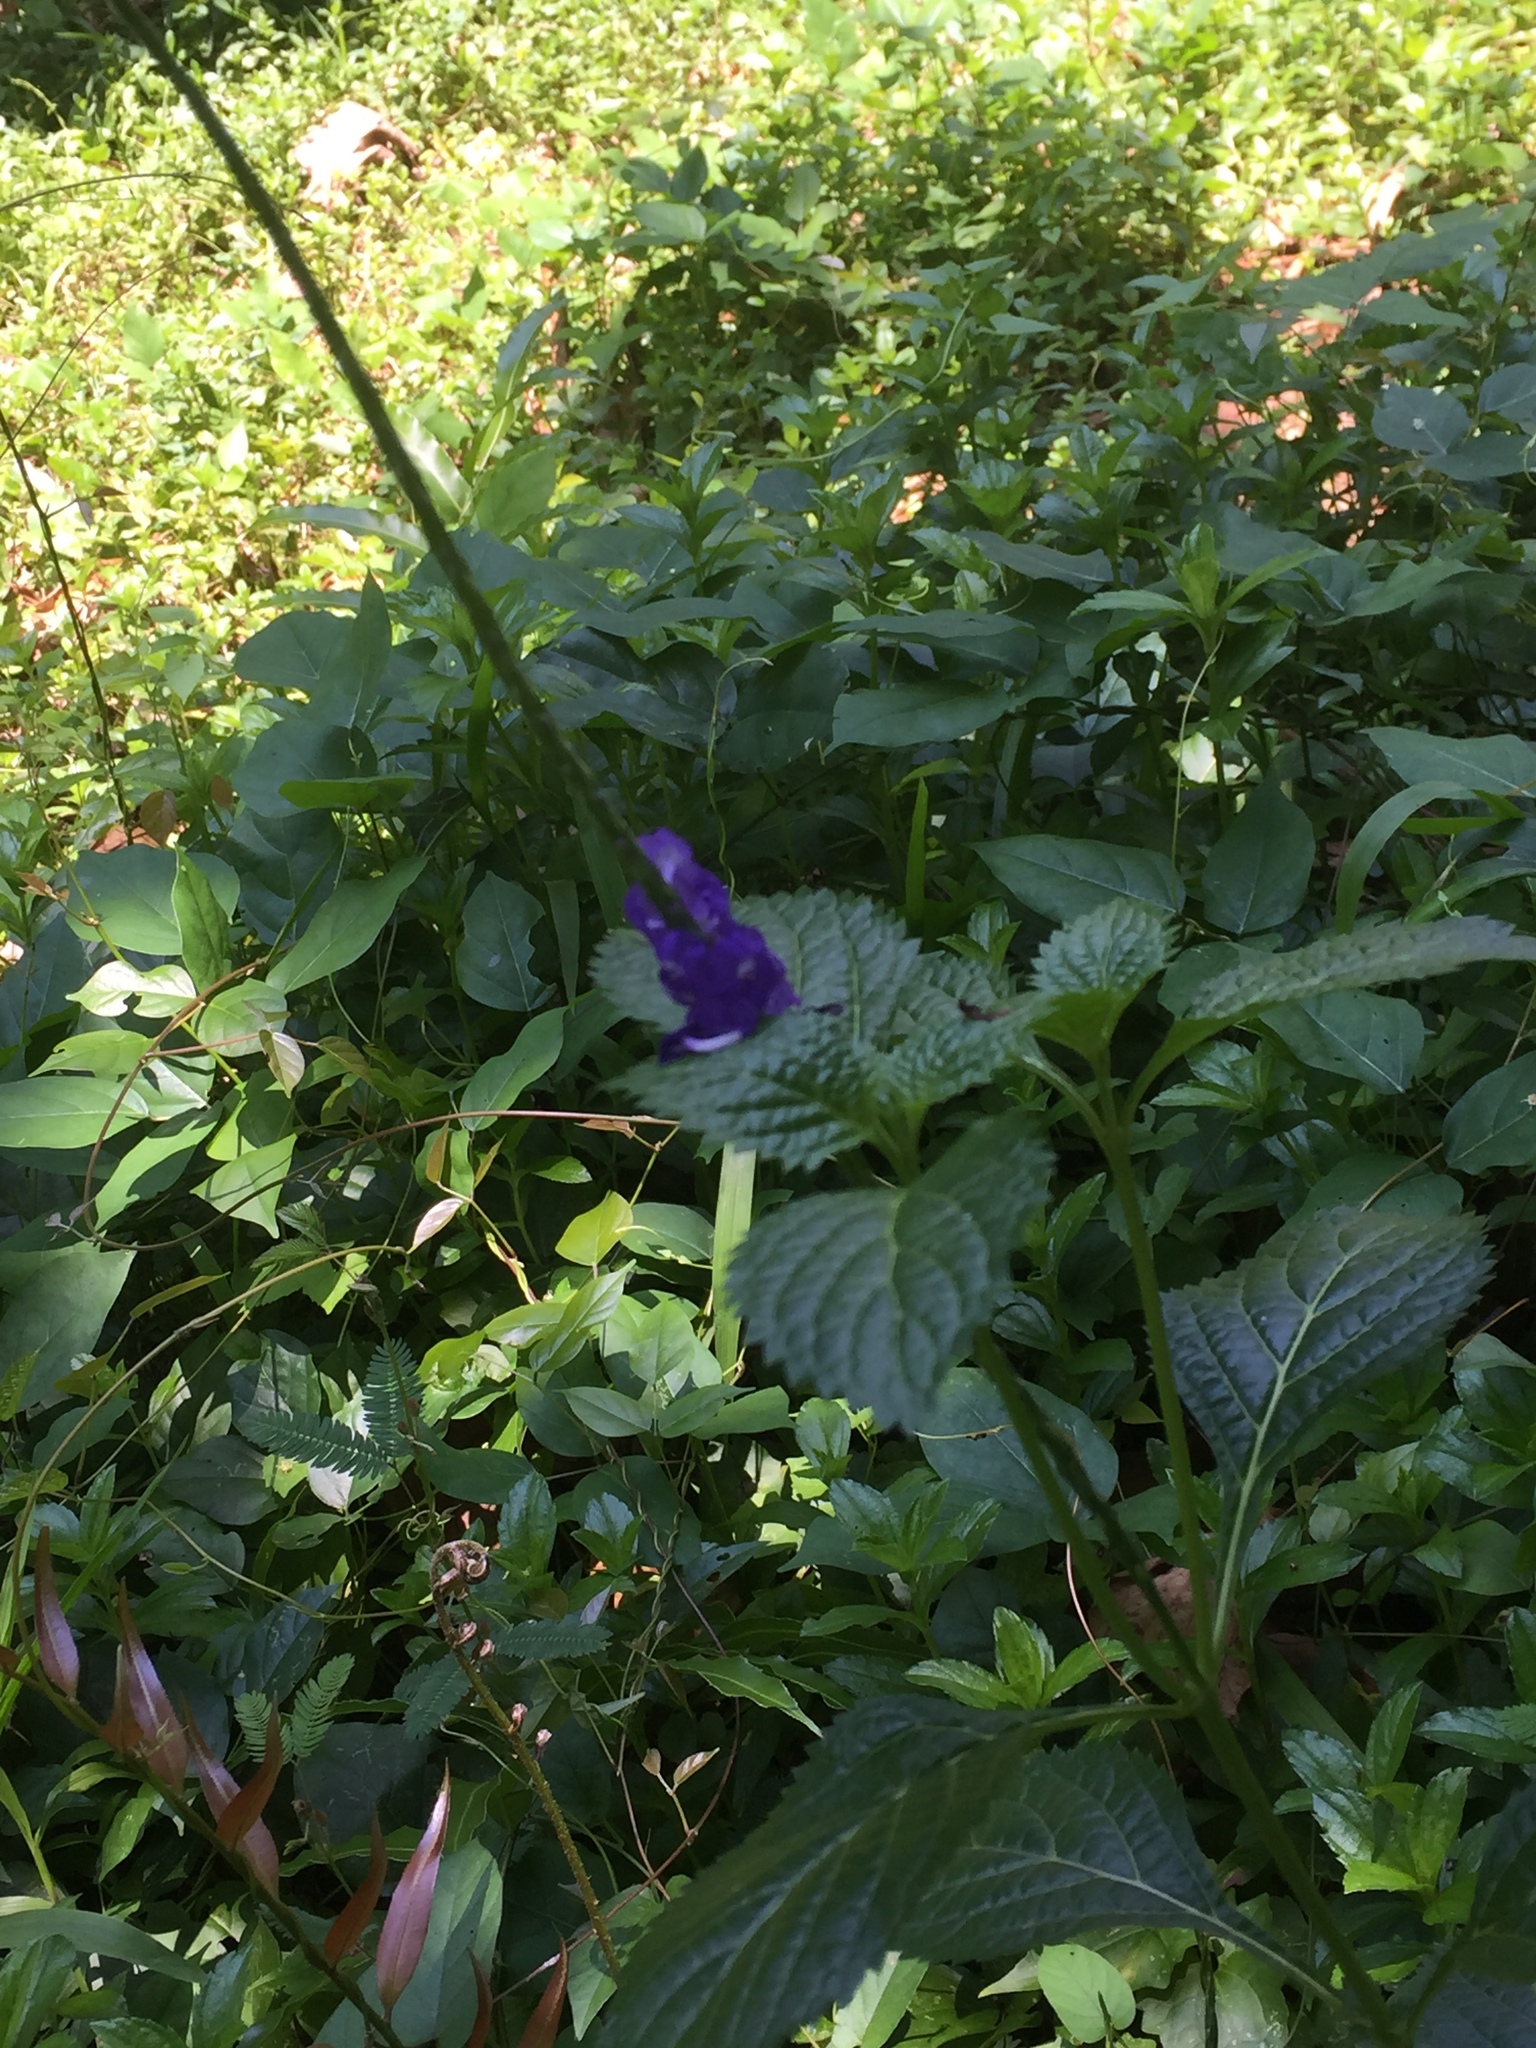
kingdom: Plantae
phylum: Tracheophyta
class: Magnoliopsida
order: Lamiales
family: Verbenaceae
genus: Stachytarpheta
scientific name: Stachytarpheta jamaicensis
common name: Light-blue snakeweed
